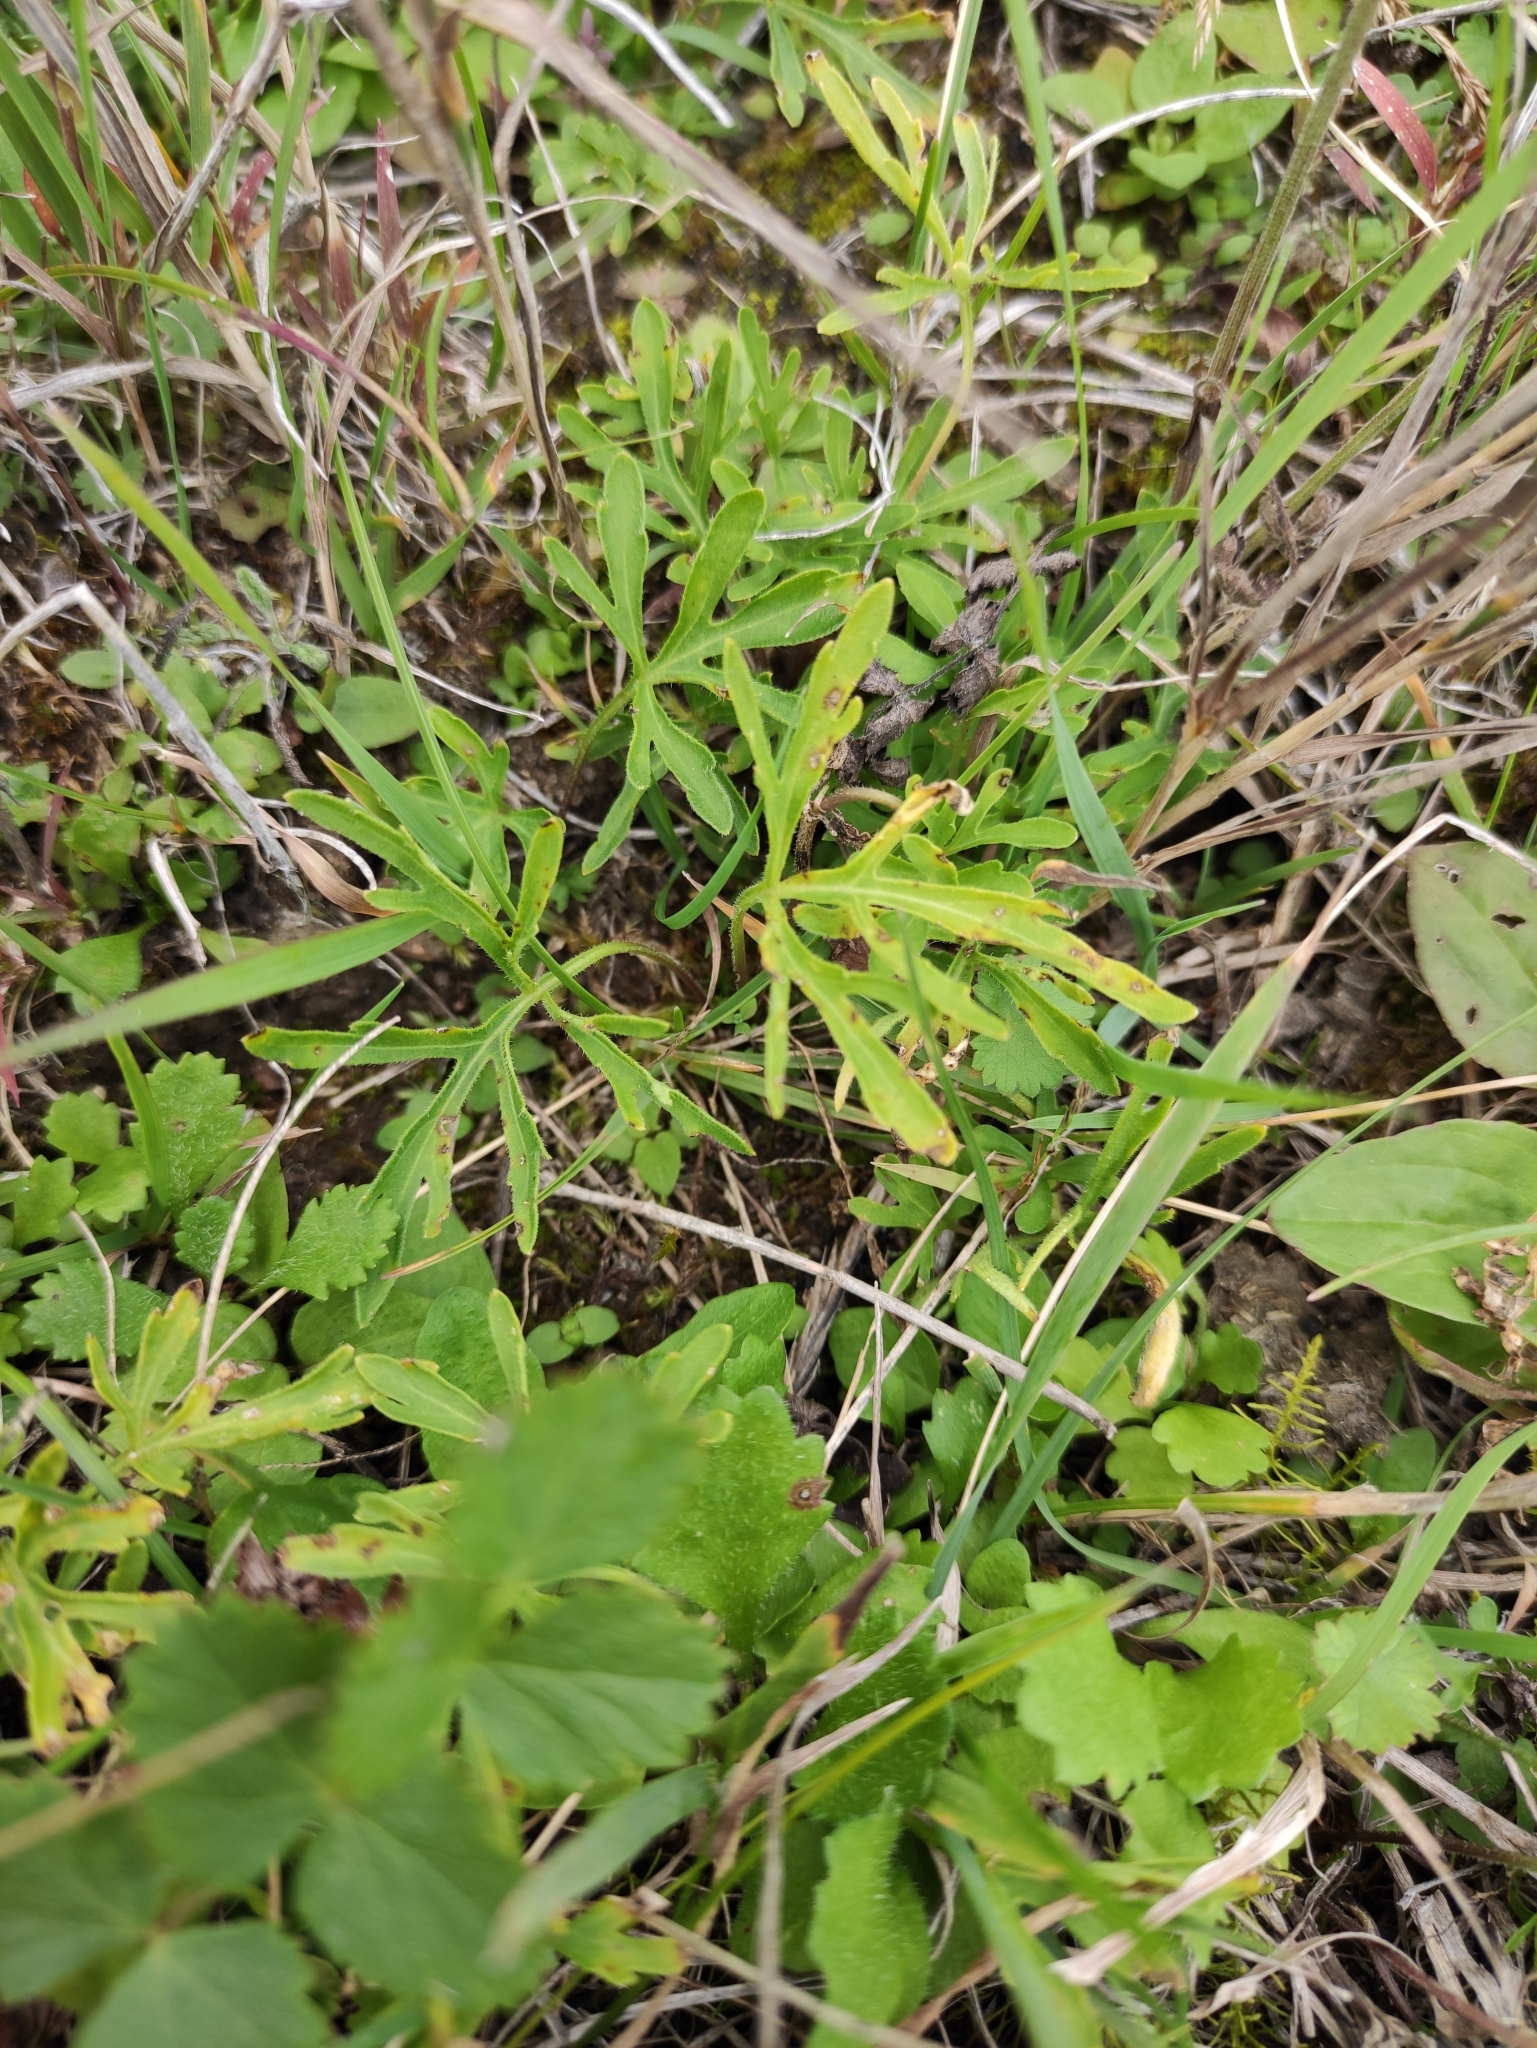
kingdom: Plantae
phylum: Tracheophyta
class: Magnoliopsida
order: Malpighiales
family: Violaceae
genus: Viola
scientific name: Viola multifida
